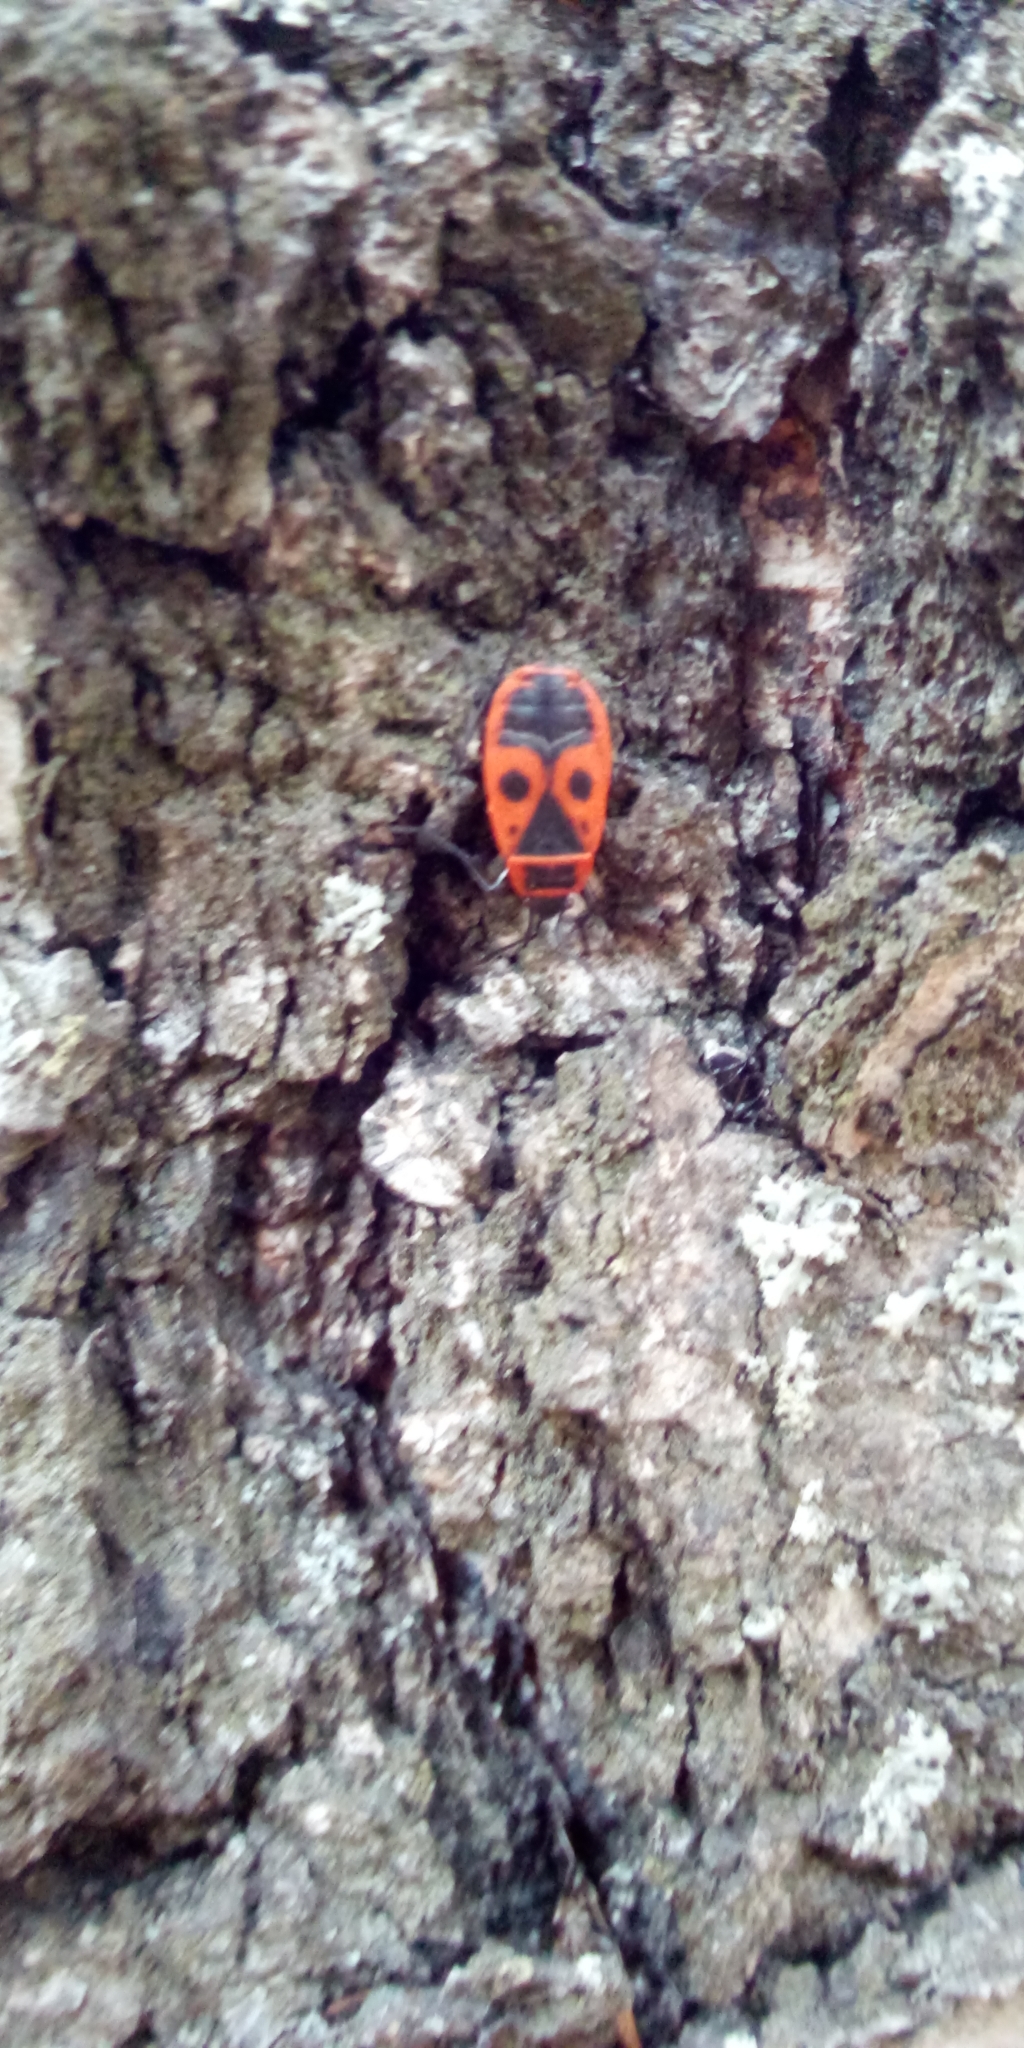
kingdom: Animalia
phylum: Arthropoda
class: Insecta
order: Hemiptera
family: Pyrrhocoridae
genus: Pyrrhocoris
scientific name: Pyrrhocoris apterus
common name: Firebug
